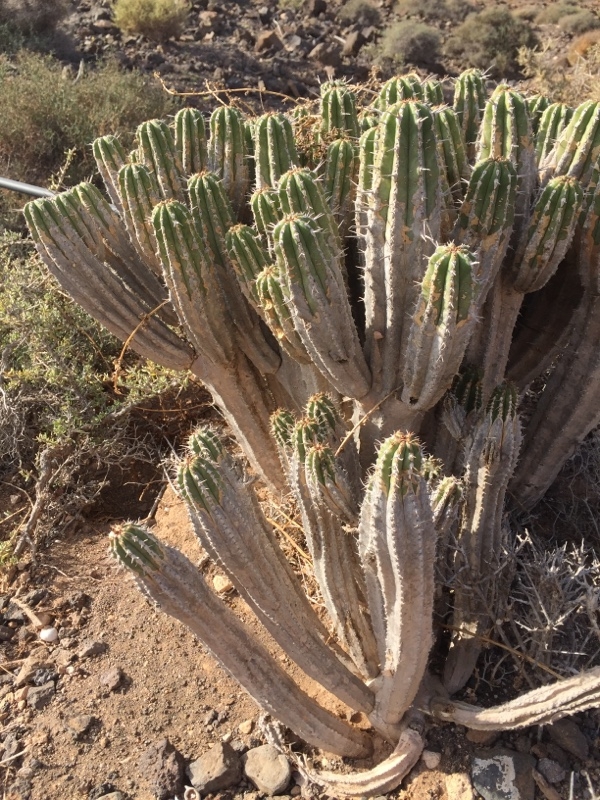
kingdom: Plantae
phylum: Tracheophyta
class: Magnoliopsida
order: Malpighiales
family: Euphorbiaceae
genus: Euphorbia
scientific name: Euphorbia handiensis
